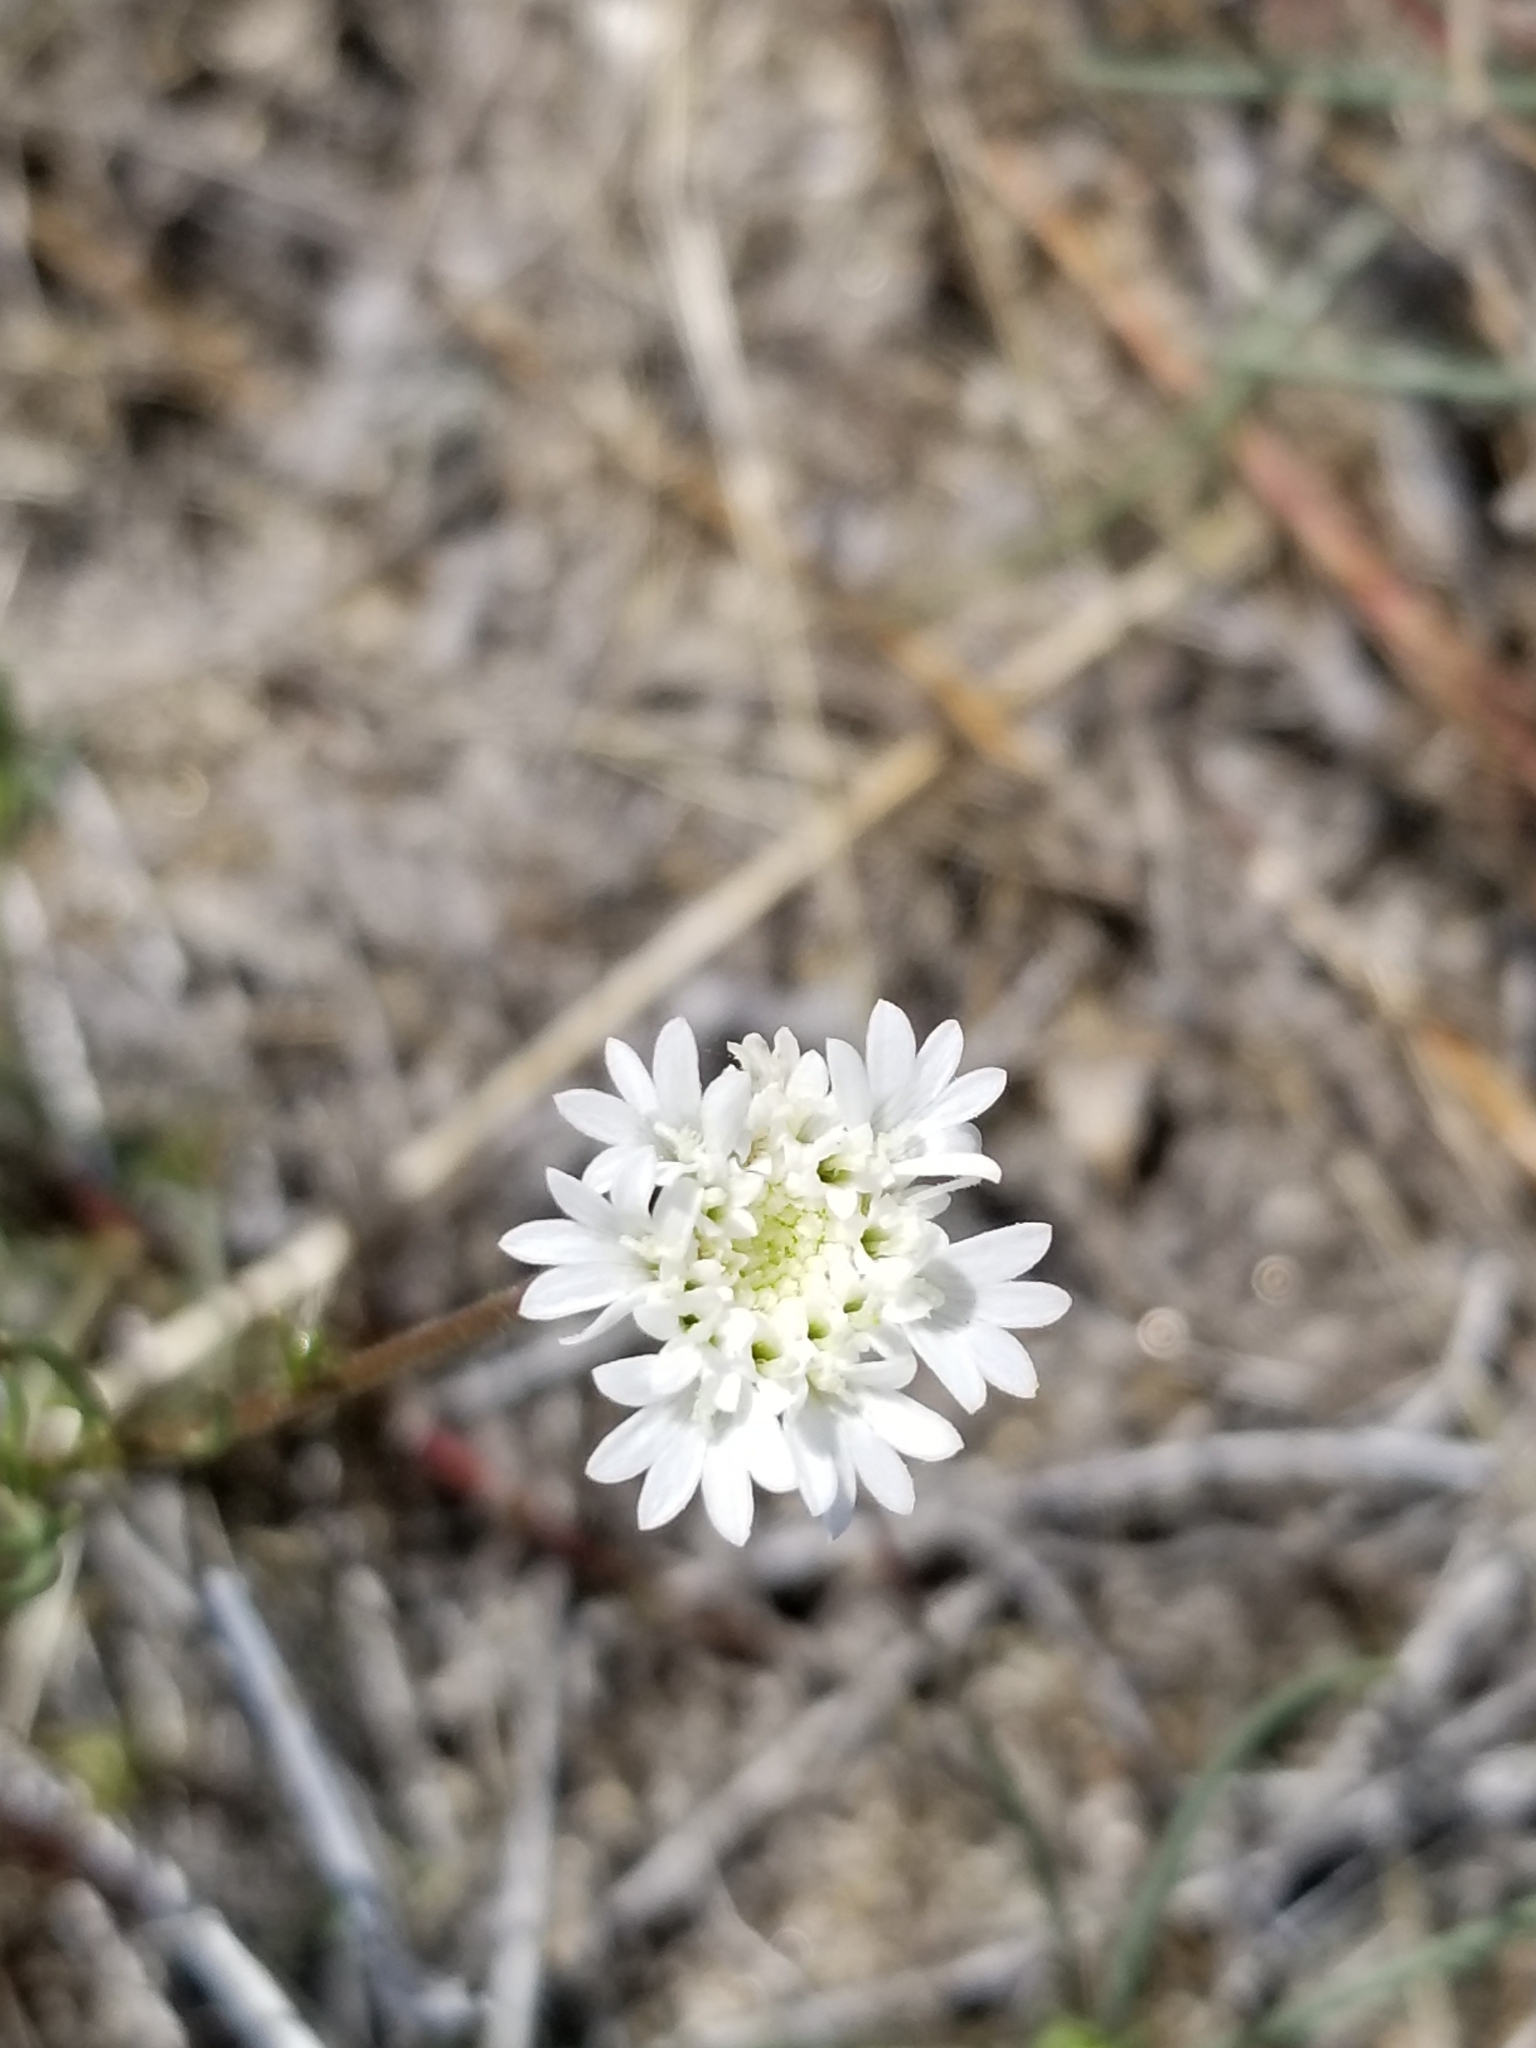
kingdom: Plantae
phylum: Tracheophyta
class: Magnoliopsida
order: Asterales
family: Asteraceae
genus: Chaenactis
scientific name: Chaenactis fremontii
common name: Fremont pincushion
